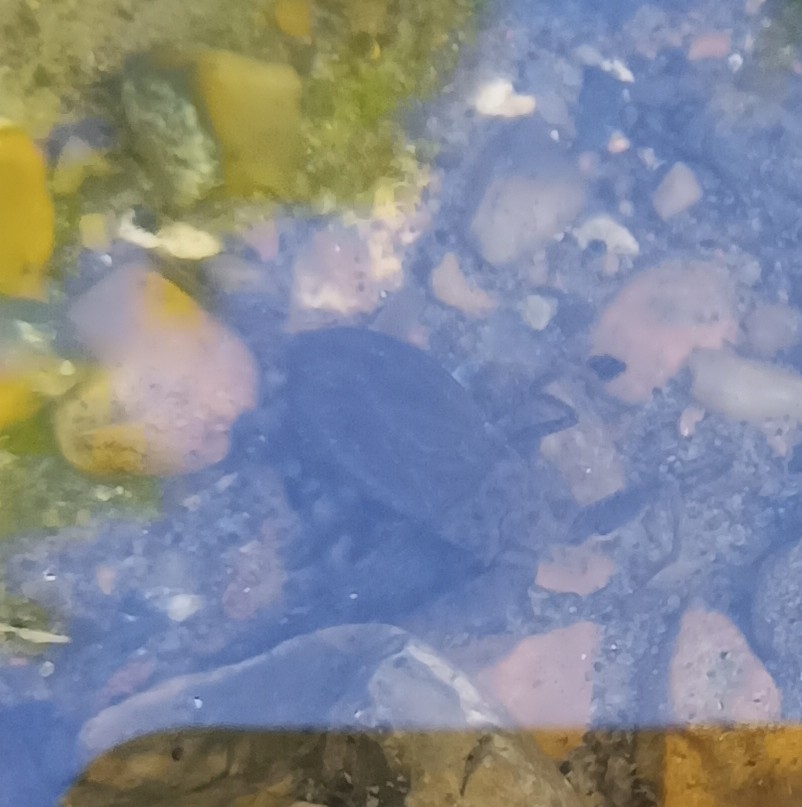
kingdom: Animalia
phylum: Arthropoda
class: Insecta
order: Hemiptera
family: Nepidae
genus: Nepa
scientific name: Nepa cinerea
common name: Water scorpion
